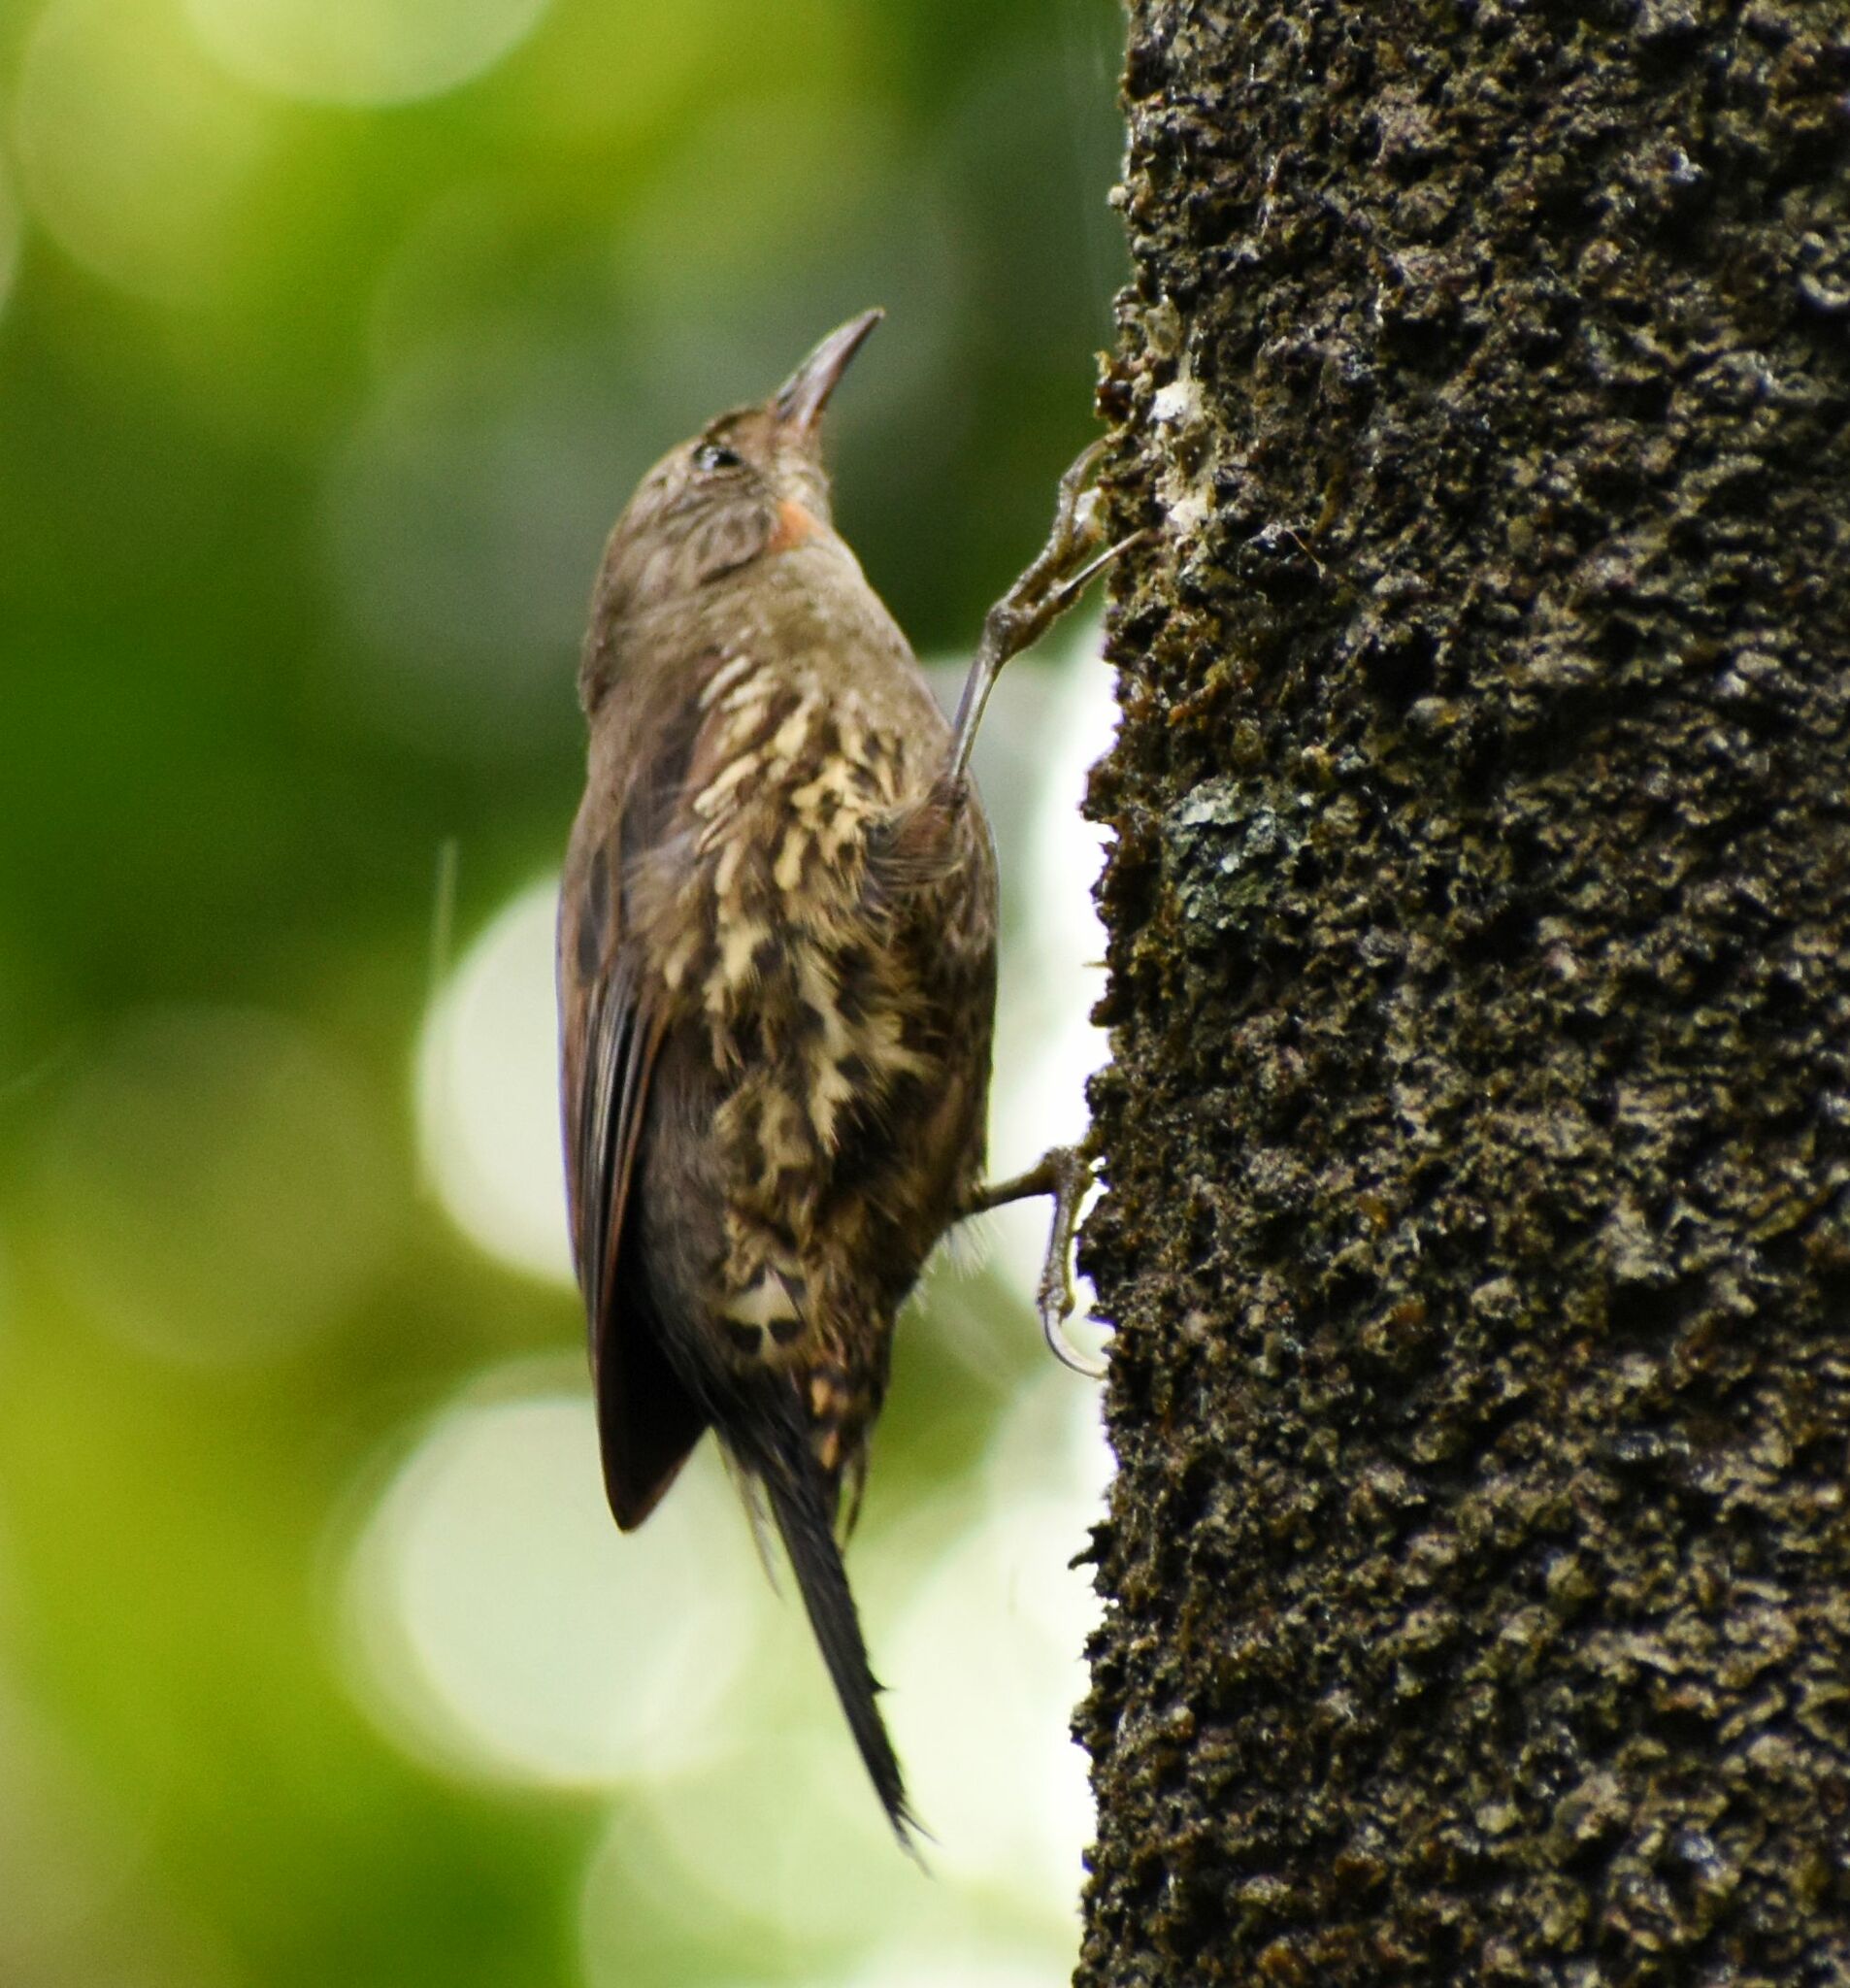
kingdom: Animalia
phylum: Chordata
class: Aves
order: Passeriformes
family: Climacteridae
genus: Cormobates
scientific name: Cormobates leucophaea
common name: White-throated treecreeper
